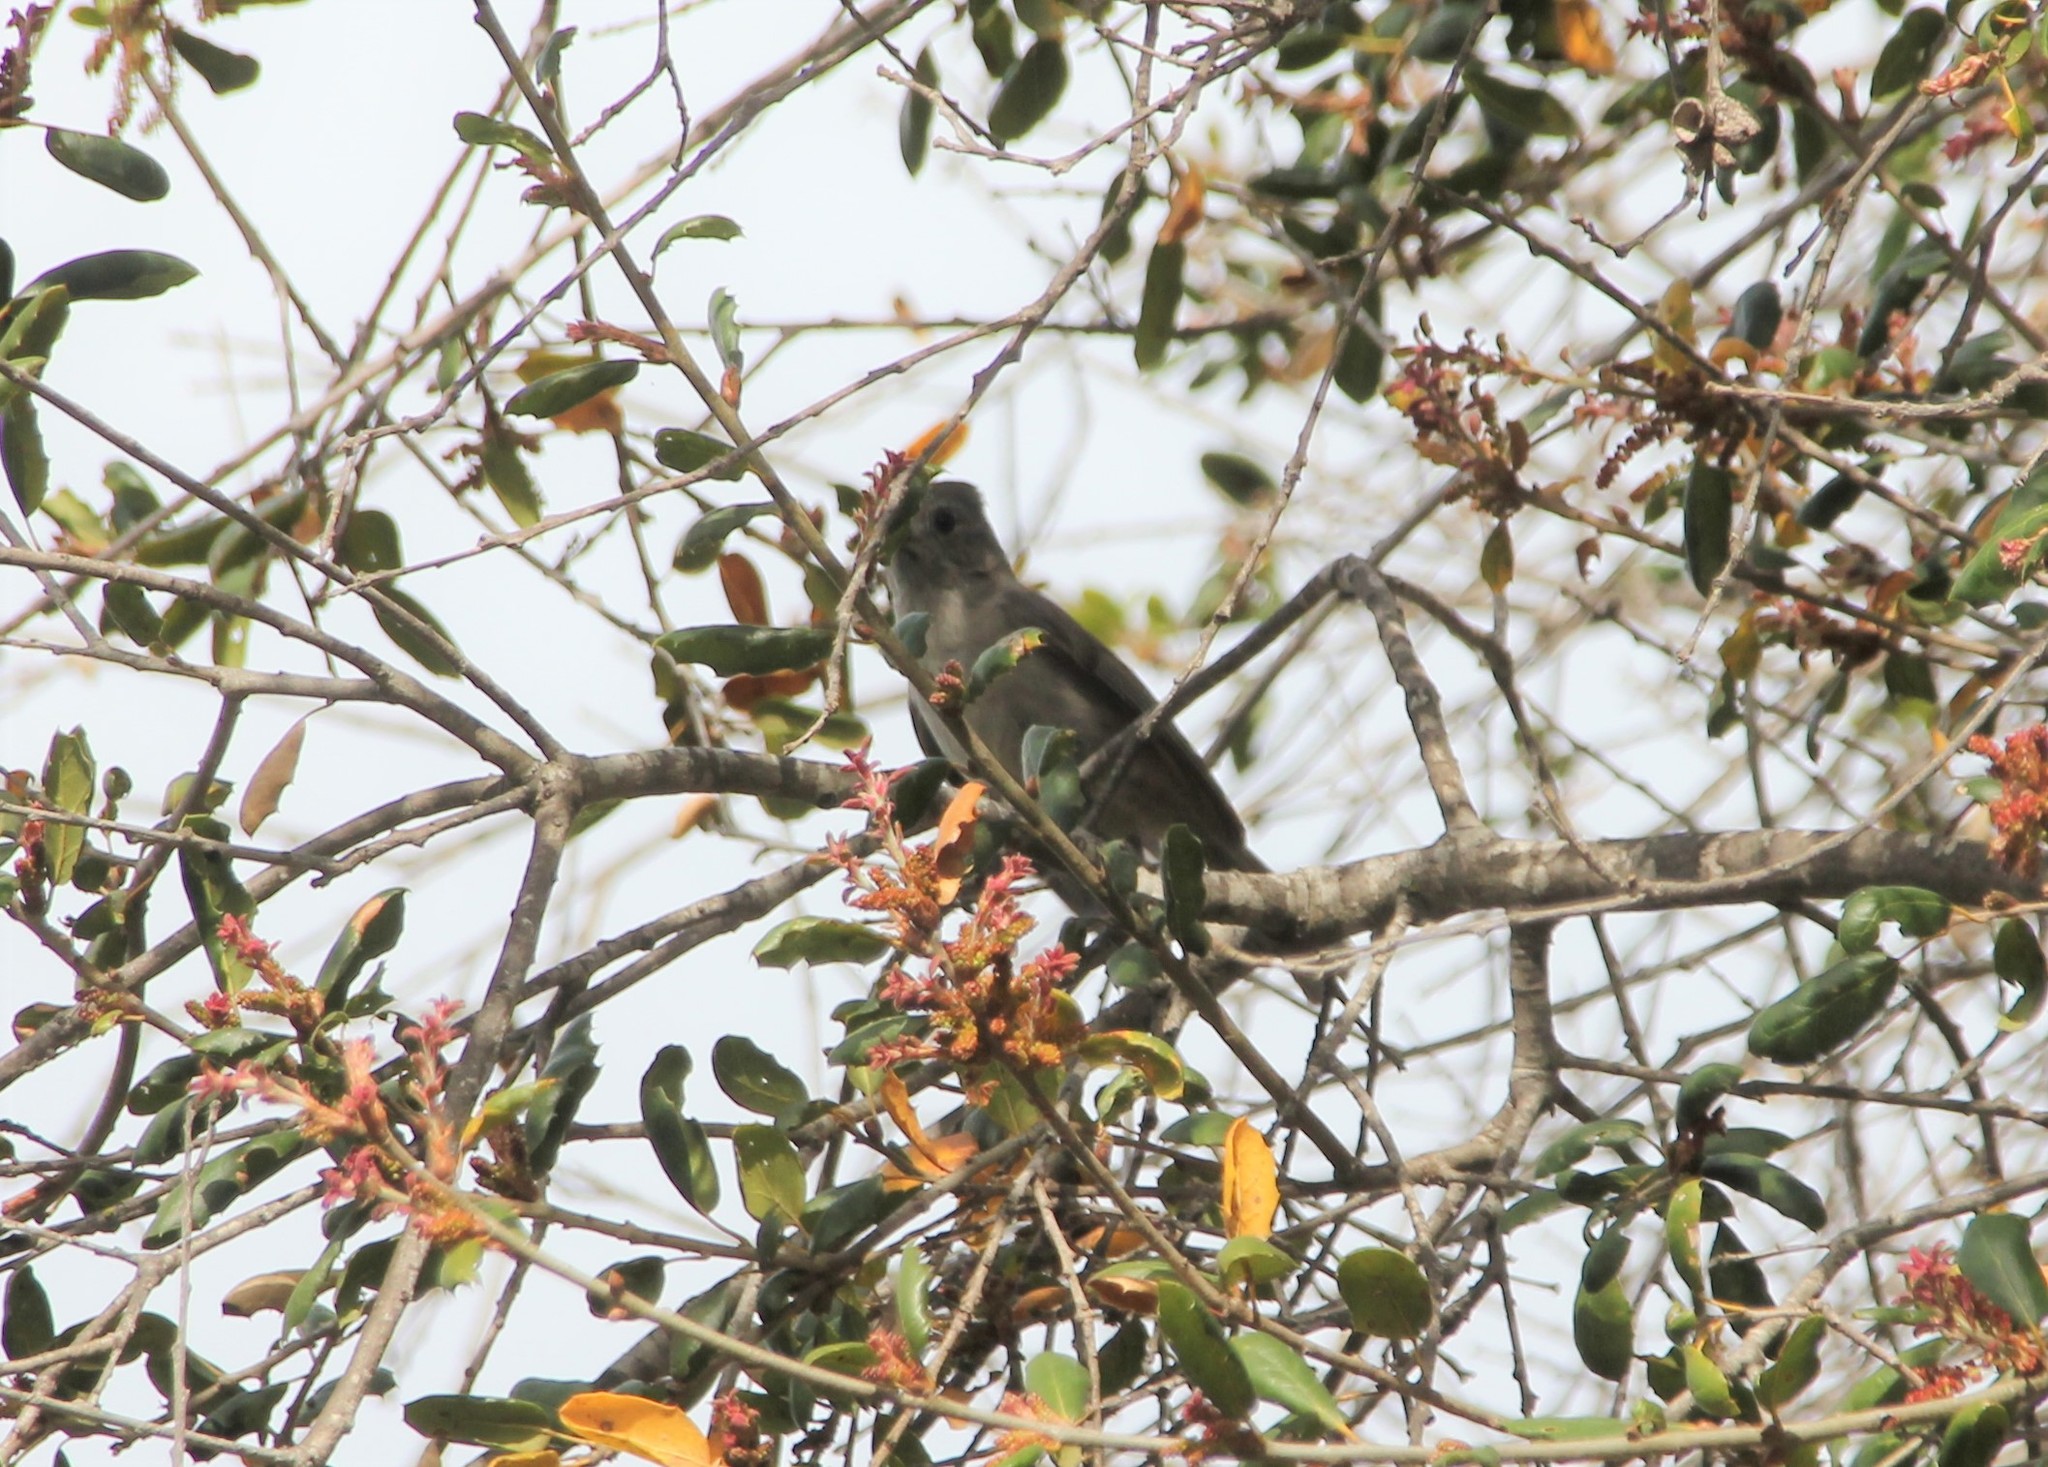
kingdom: Animalia
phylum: Chordata
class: Aves
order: Passeriformes
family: Paridae
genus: Baeolophus
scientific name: Baeolophus inornatus
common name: Oak titmouse
